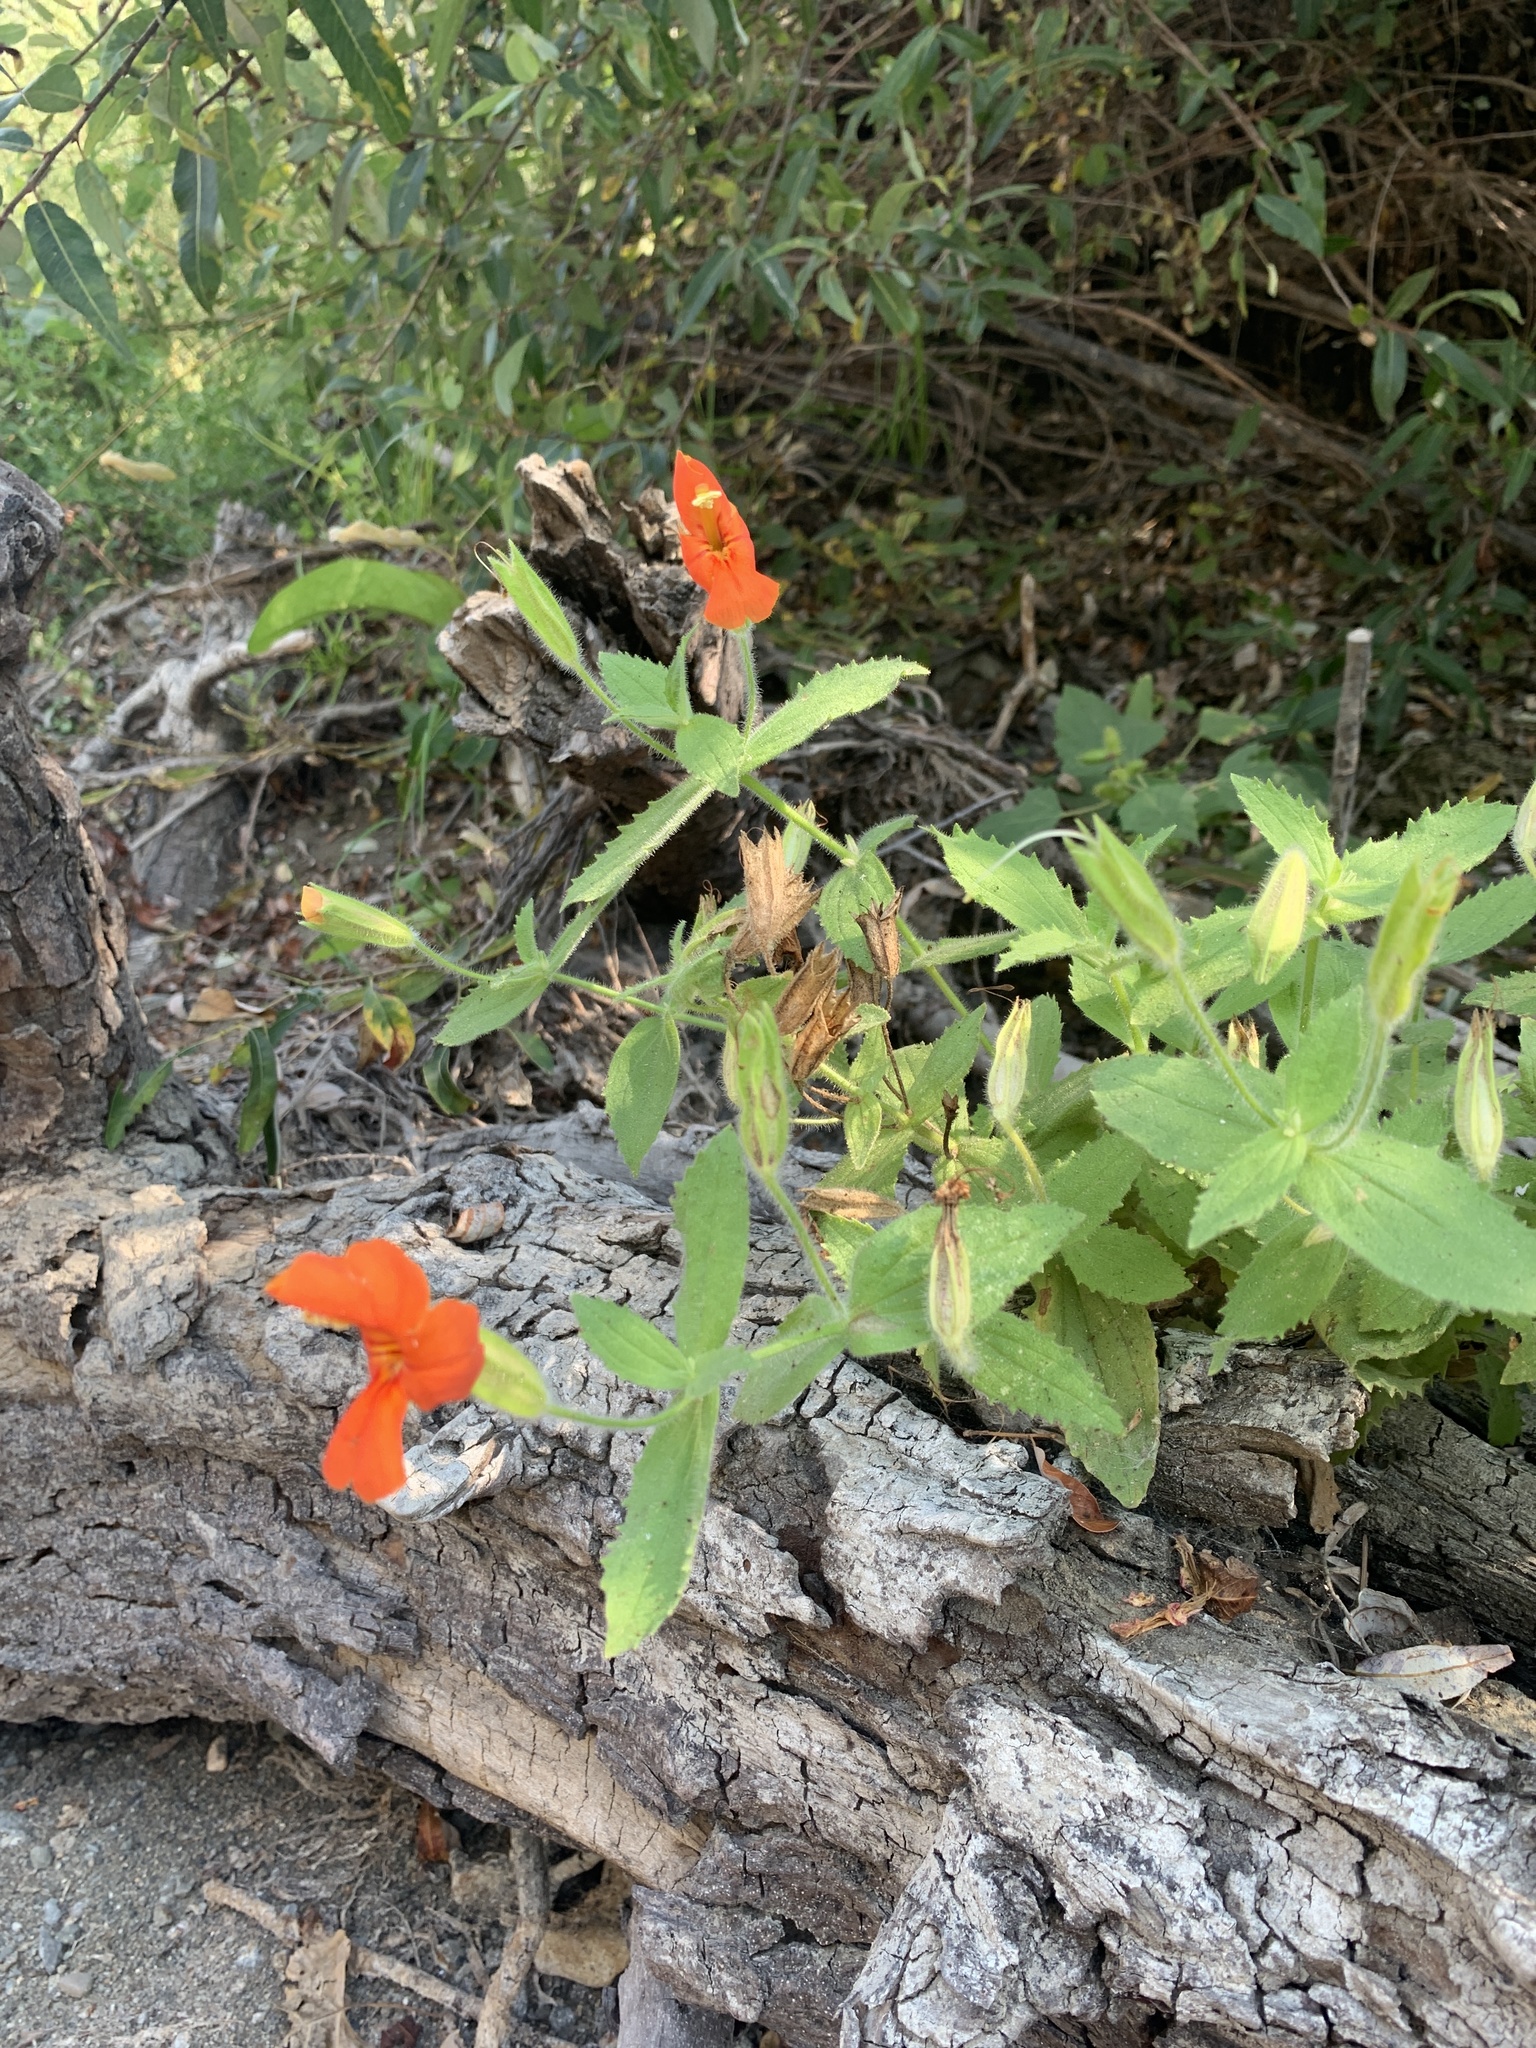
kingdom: Plantae
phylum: Tracheophyta
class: Magnoliopsida
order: Lamiales
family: Phrymaceae
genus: Erythranthe
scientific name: Erythranthe cardinalis
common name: Scarlet monkey-flower
